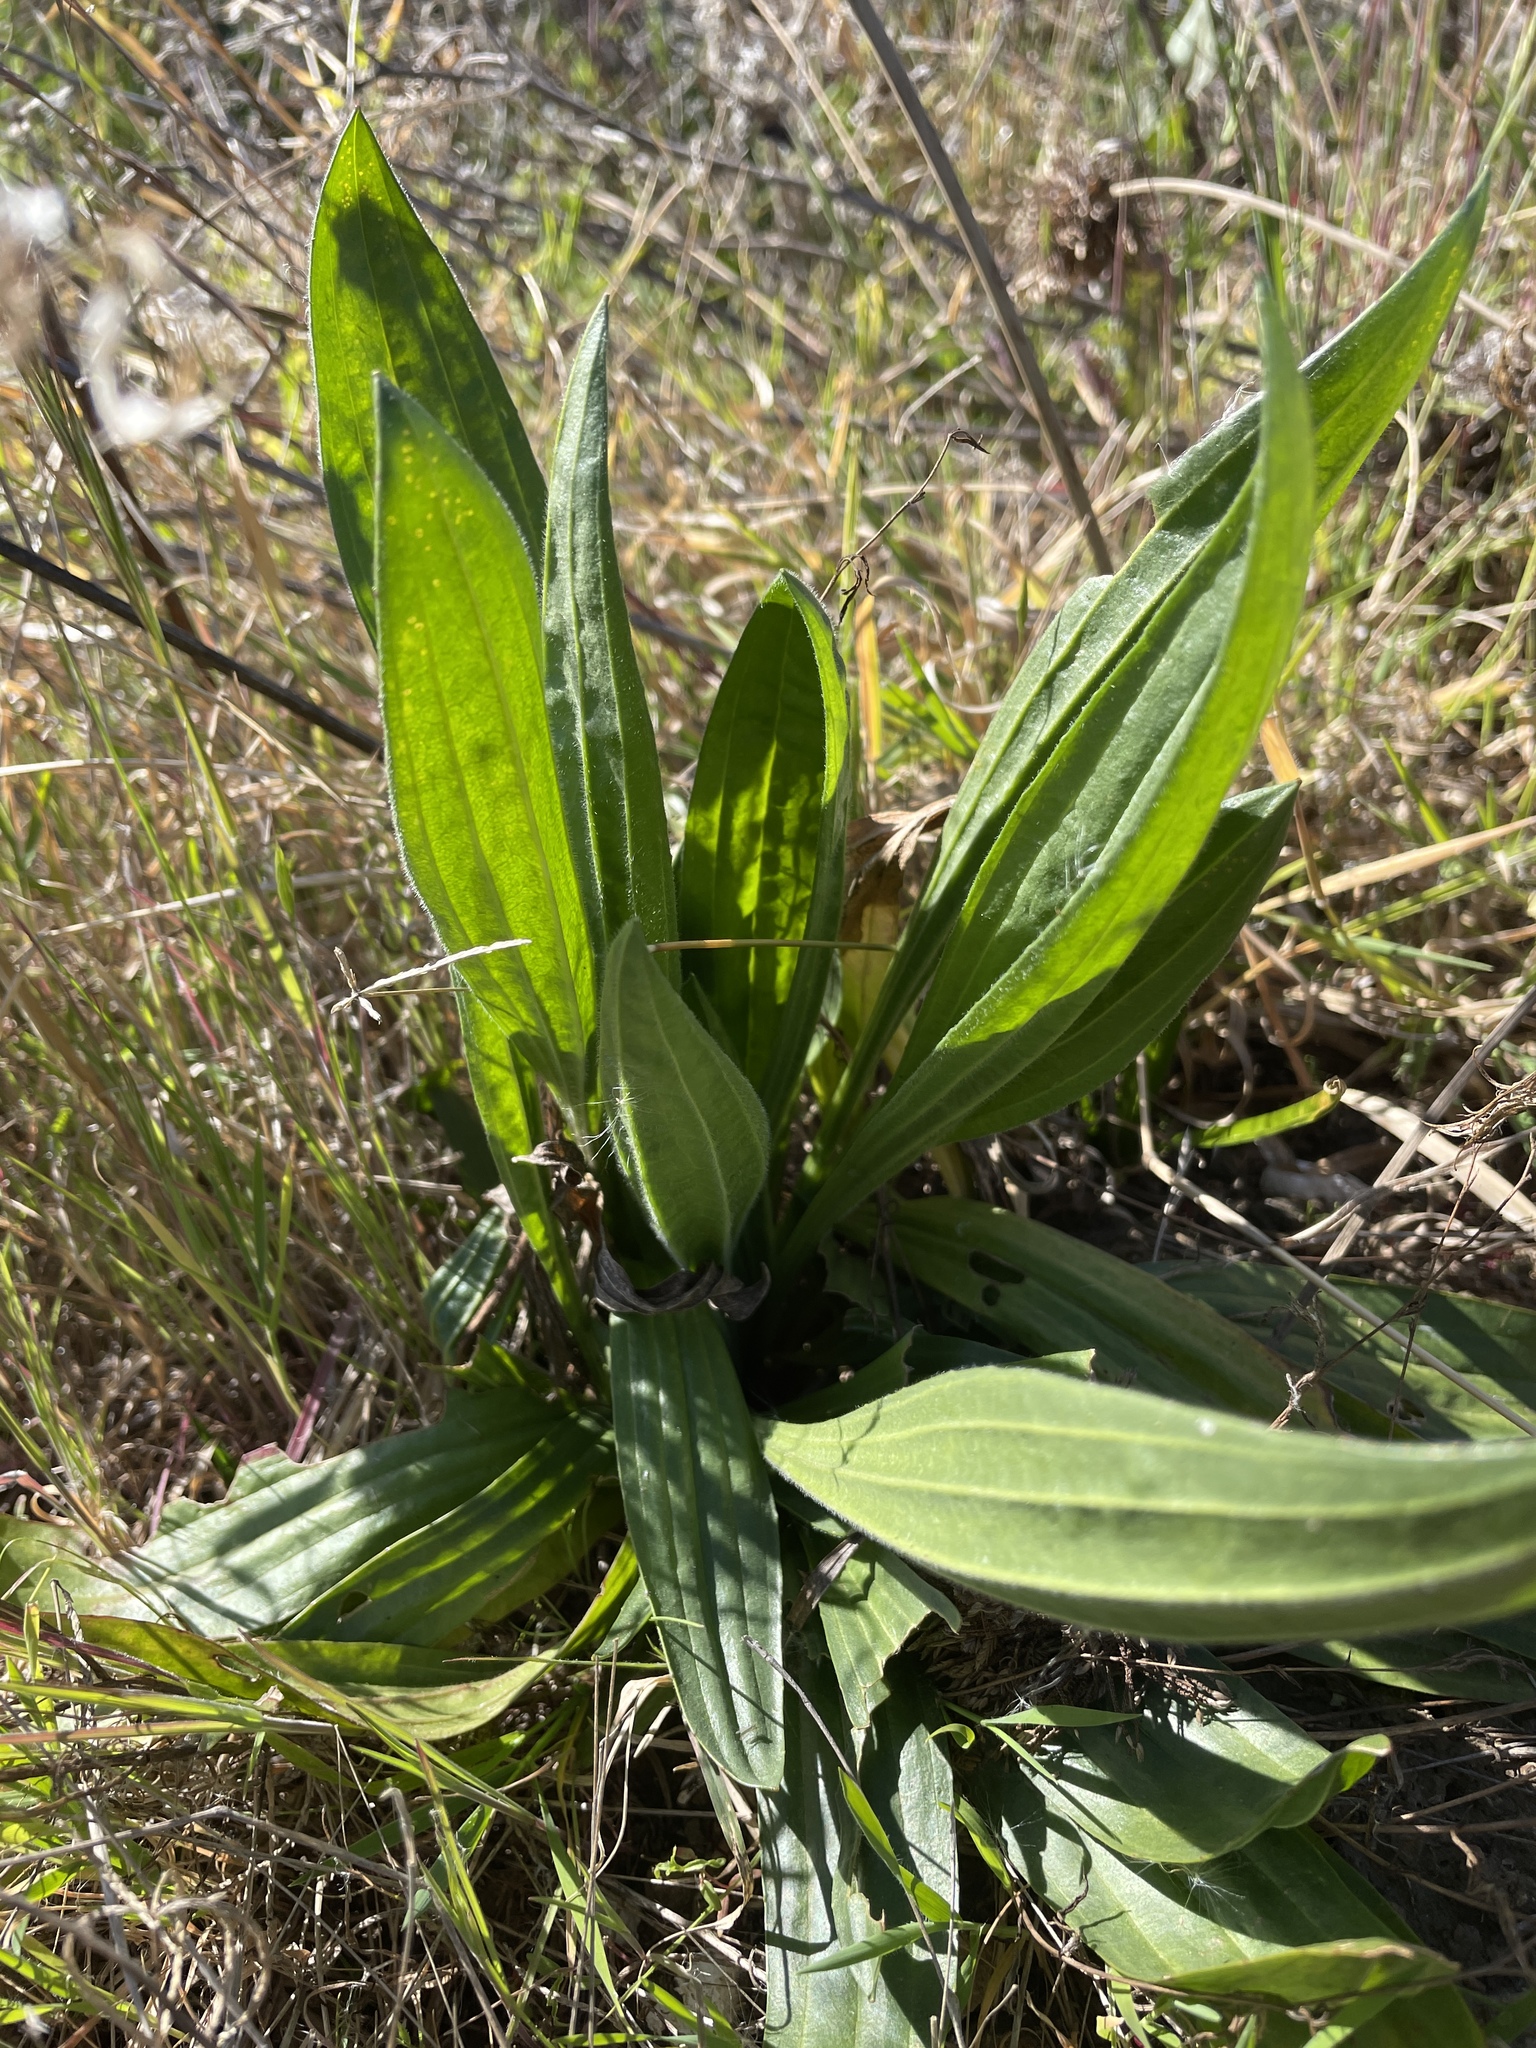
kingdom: Plantae
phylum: Tracheophyta
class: Magnoliopsida
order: Lamiales
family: Plantaginaceae
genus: Plantago
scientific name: Plantago lanceolata
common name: Ribwort plantain
